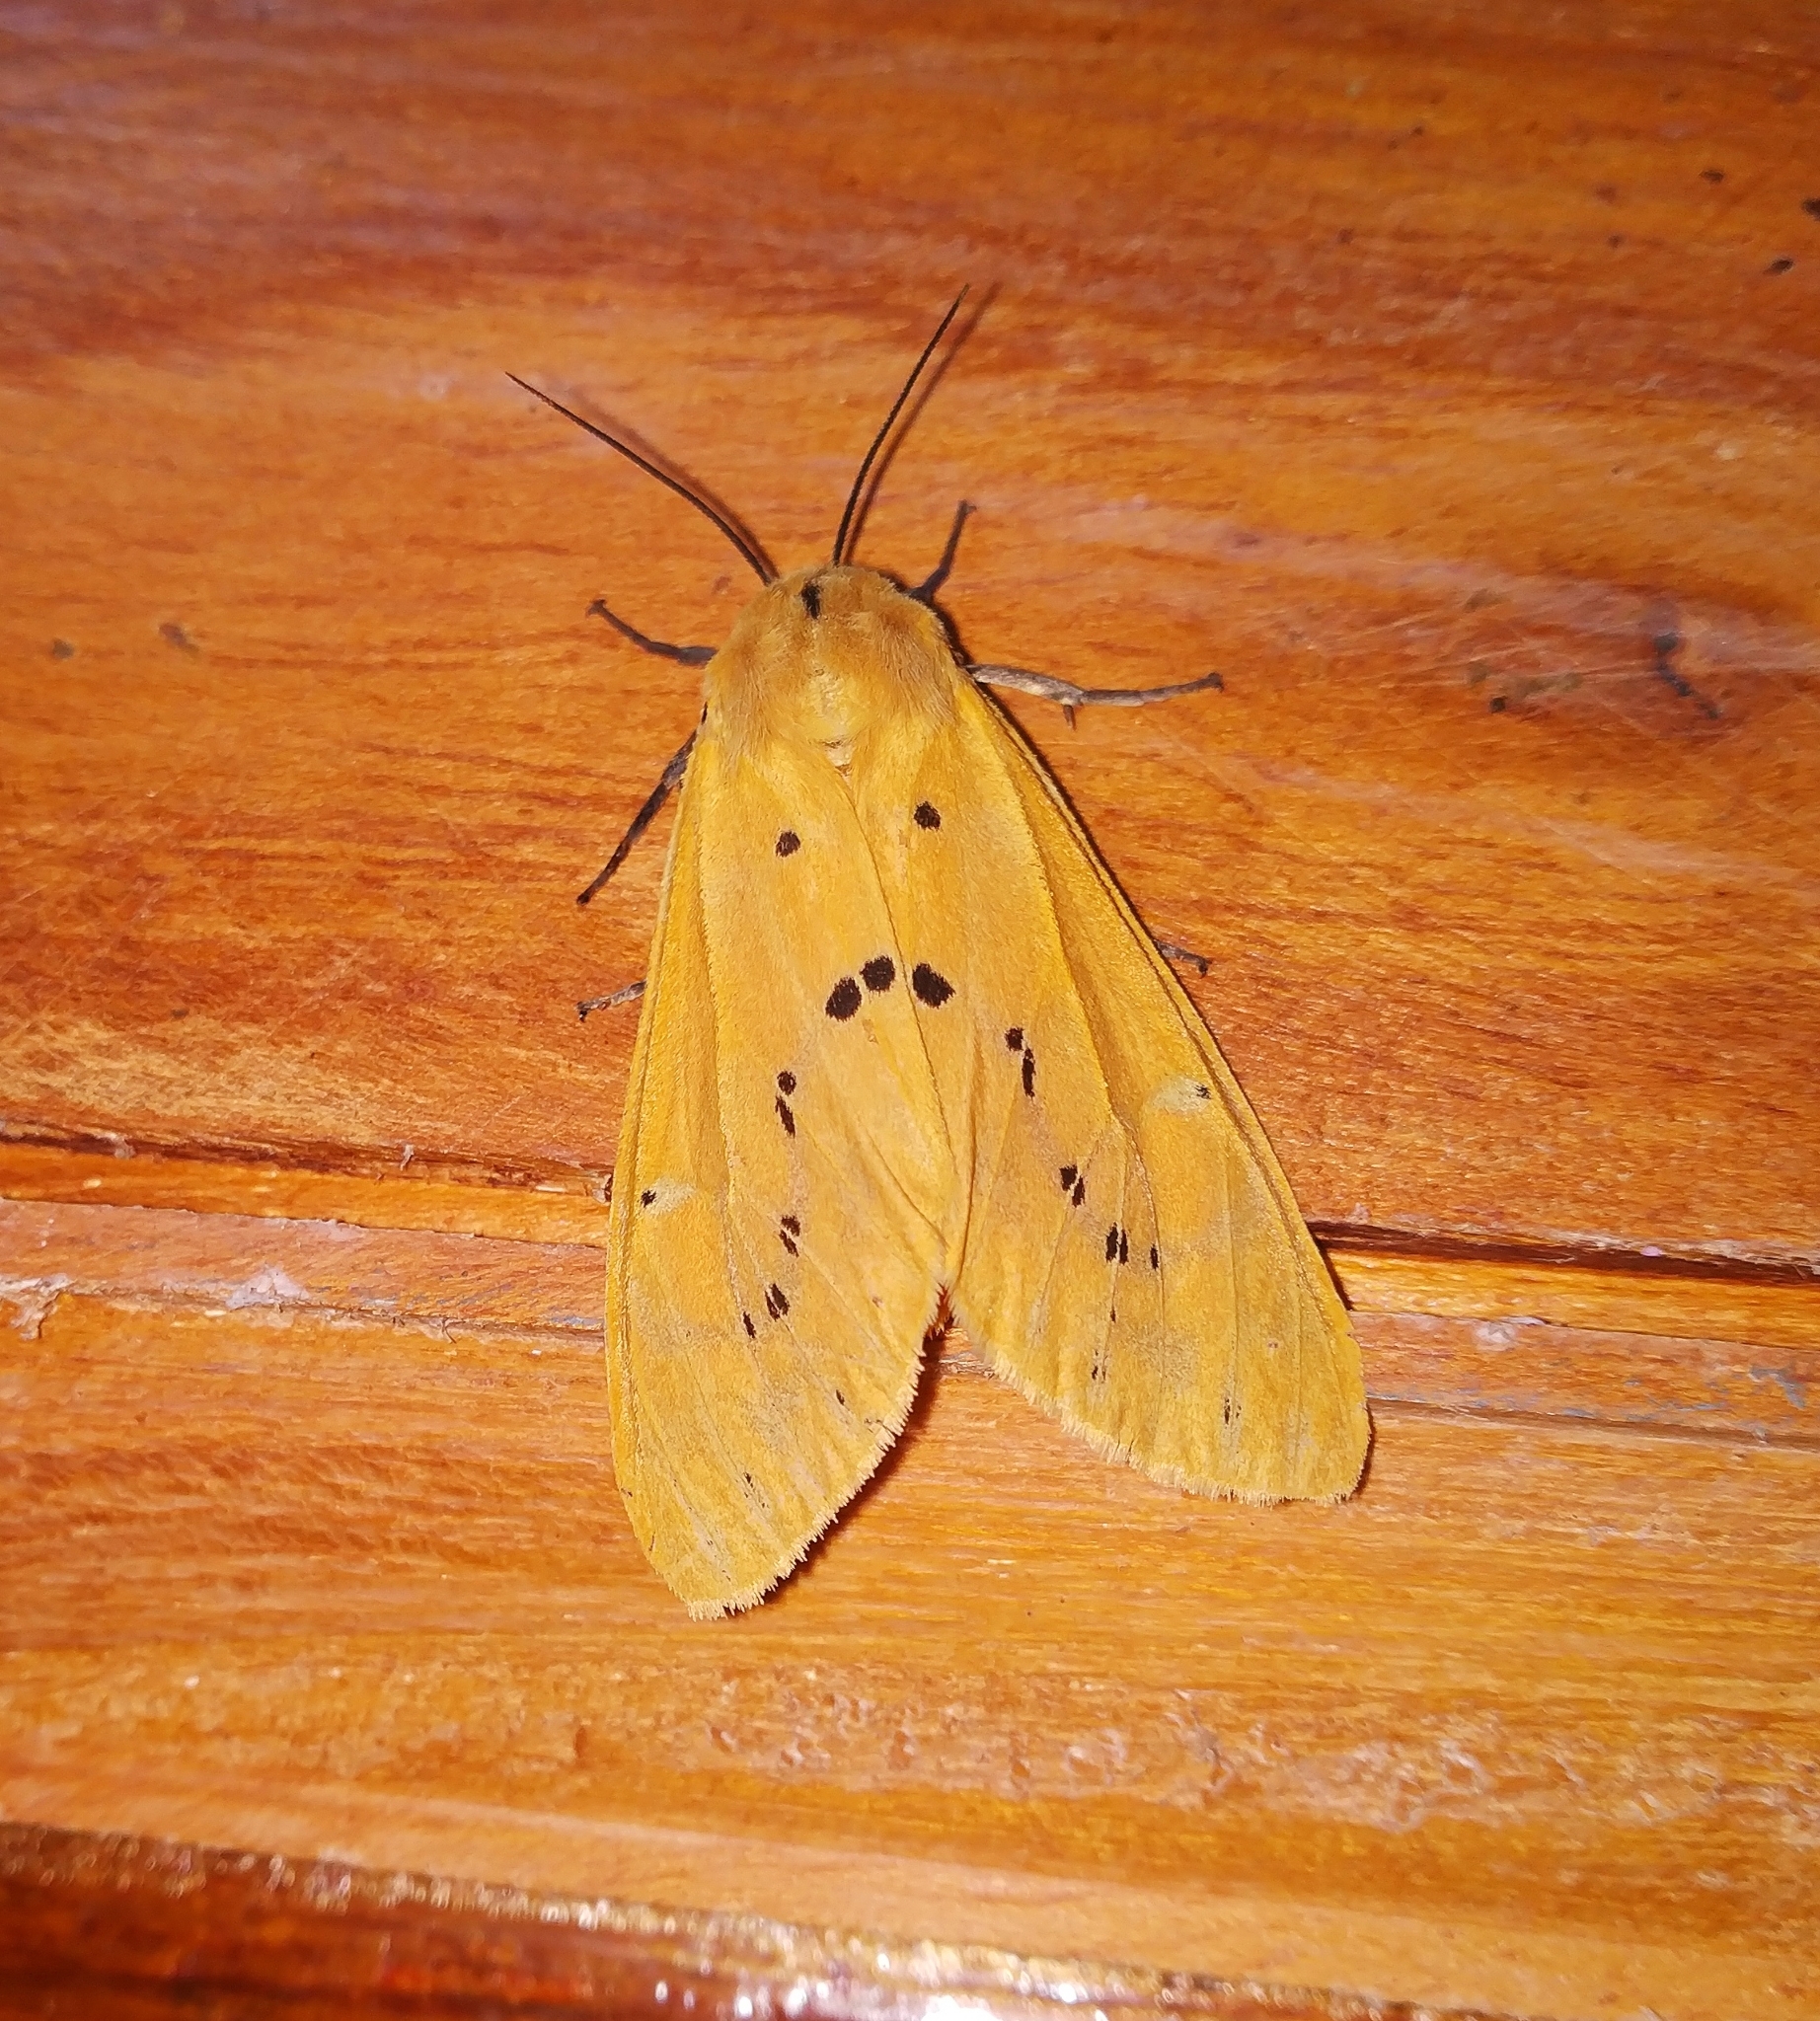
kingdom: Animalia
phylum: Arthropoda
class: Insecta
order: Lepidoptera
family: Erebidae
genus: Spilarctia
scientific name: Spilarctia obliqua
